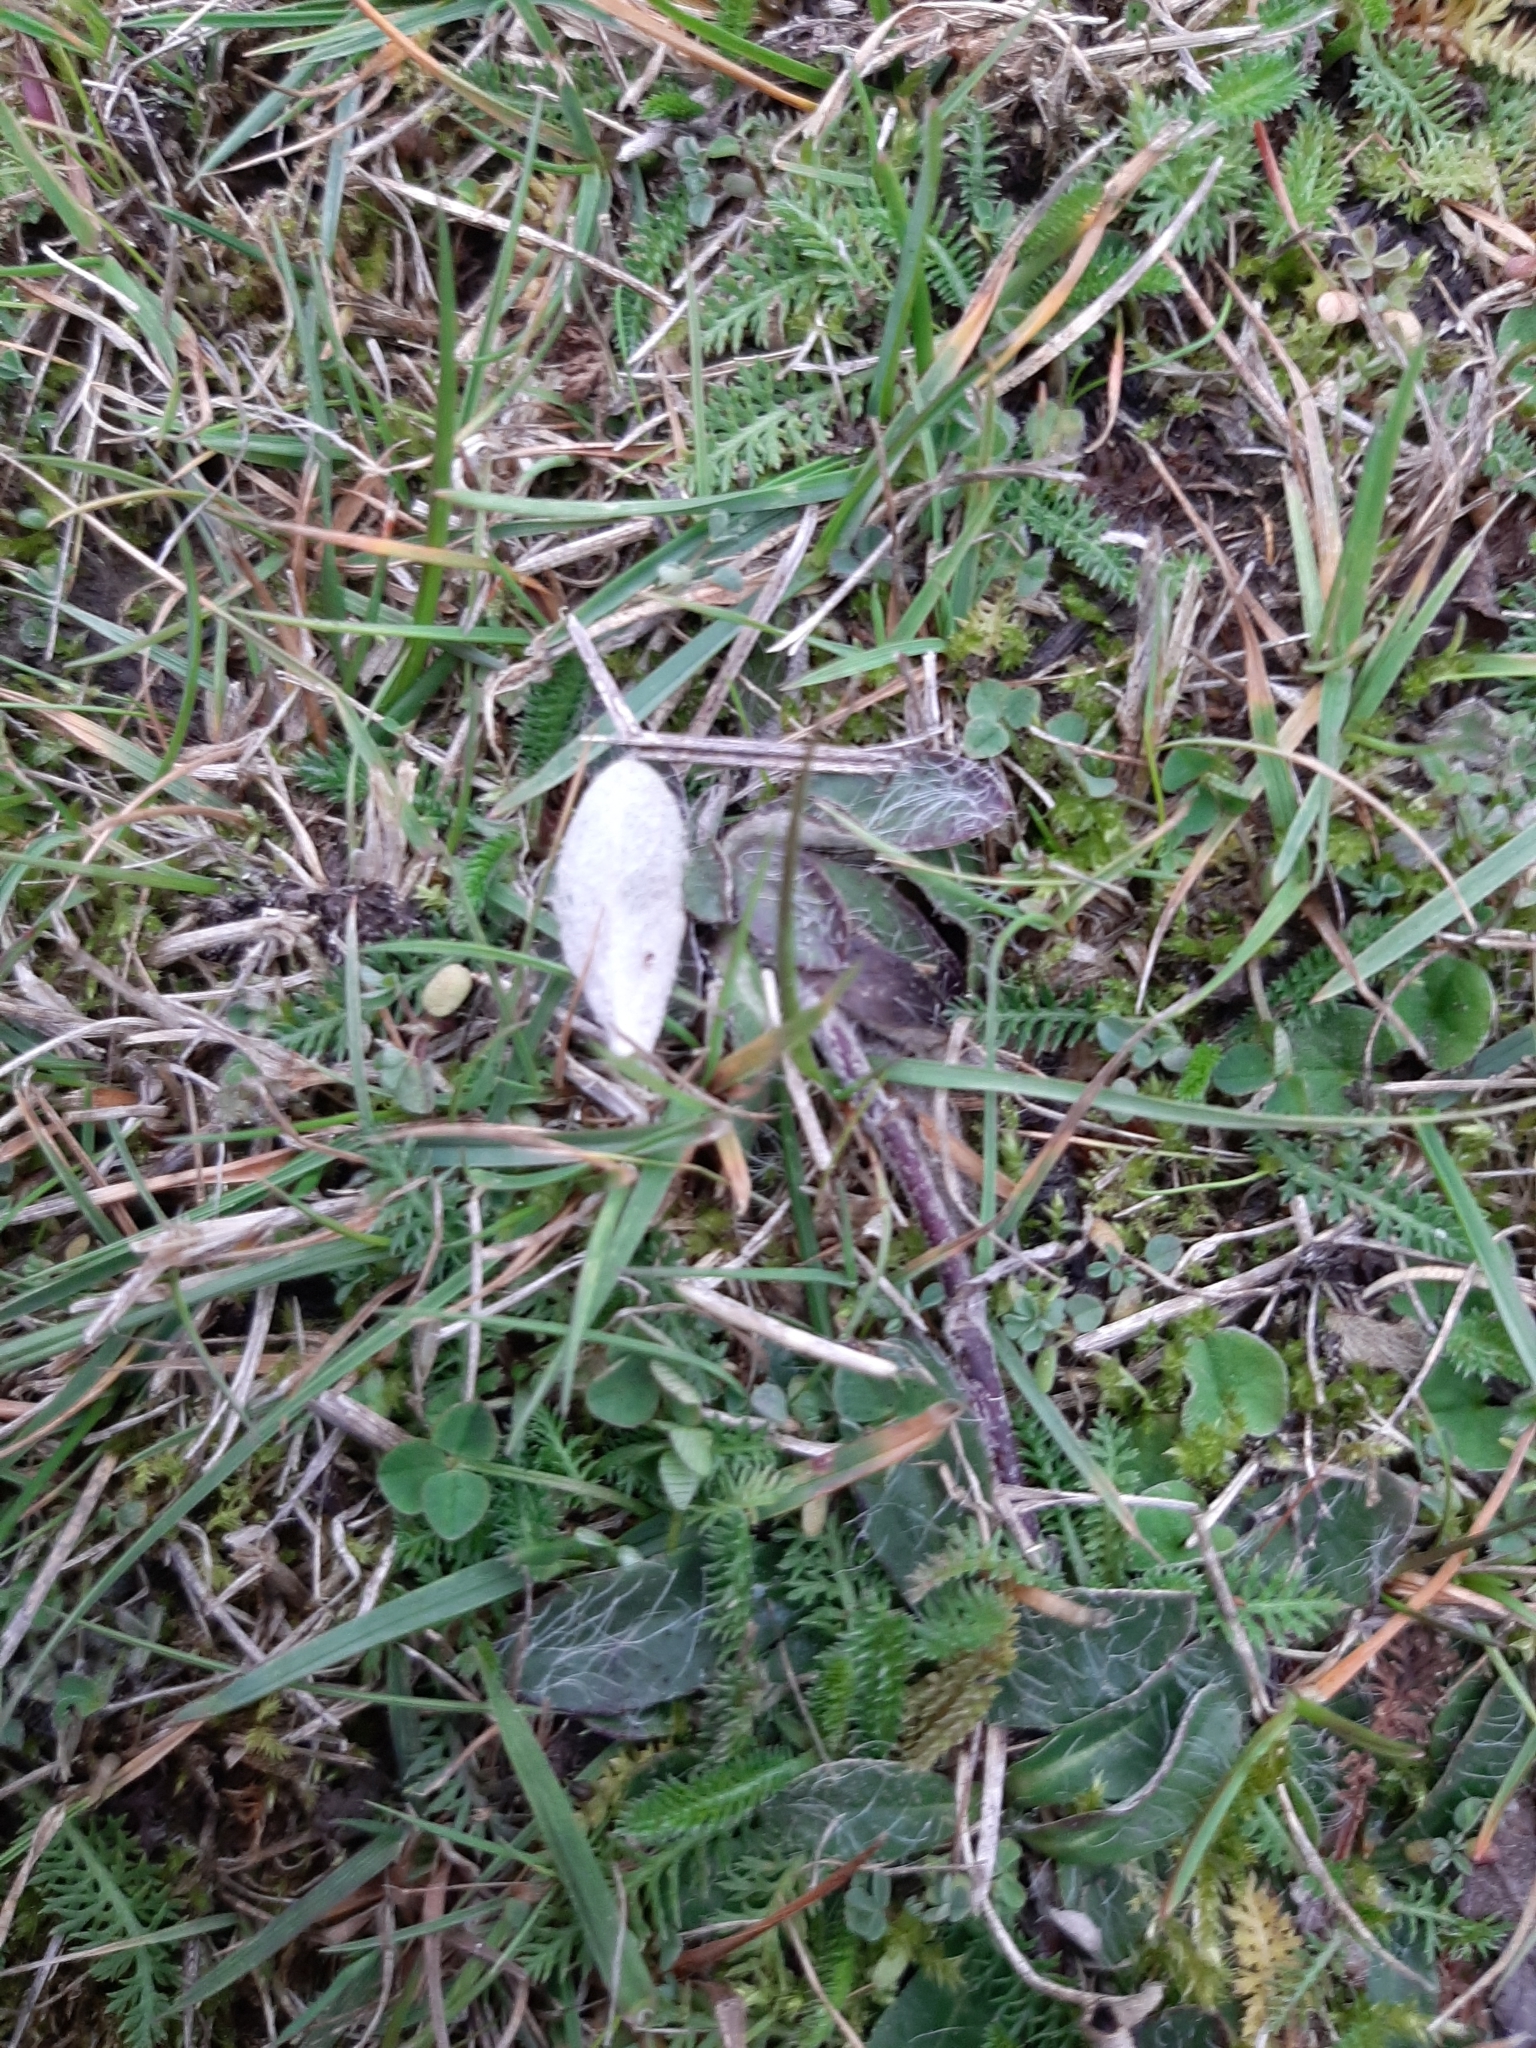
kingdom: Plantae
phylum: Tracheophyta
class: Magnoliopsida
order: Asterales
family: Asteraceae
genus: Pilosella
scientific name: Pilosella officinarum
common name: Mouse-ear hawkweed
